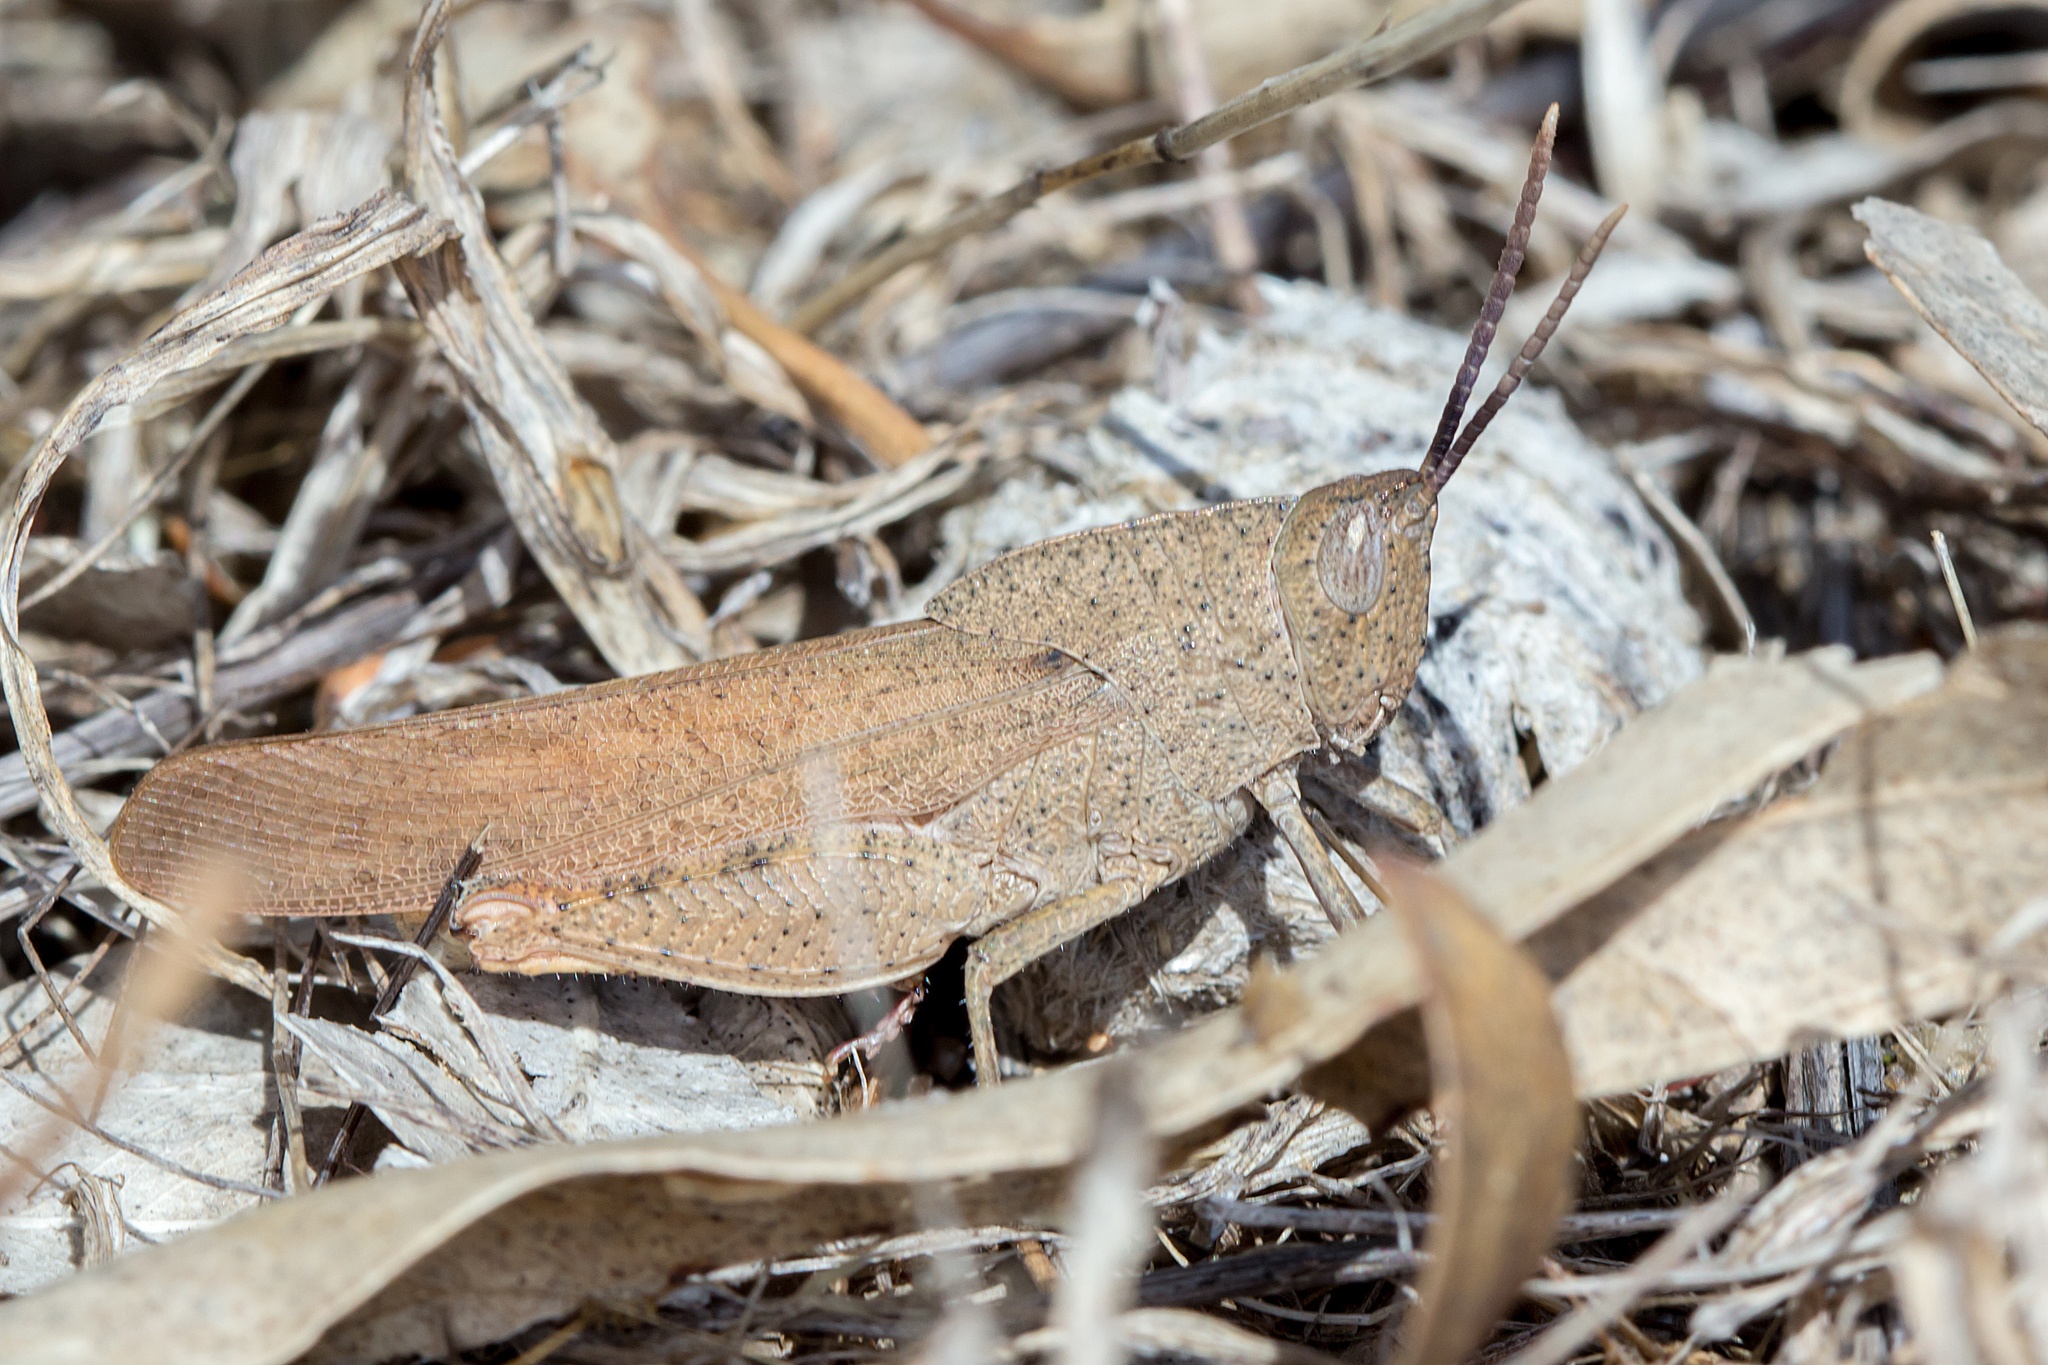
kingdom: Animalia
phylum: Arthropoda
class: Insecta
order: Orthoptera
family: Acrididae
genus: Goniaea
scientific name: Goniaea australasiae
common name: Gumleaf grasshopper
